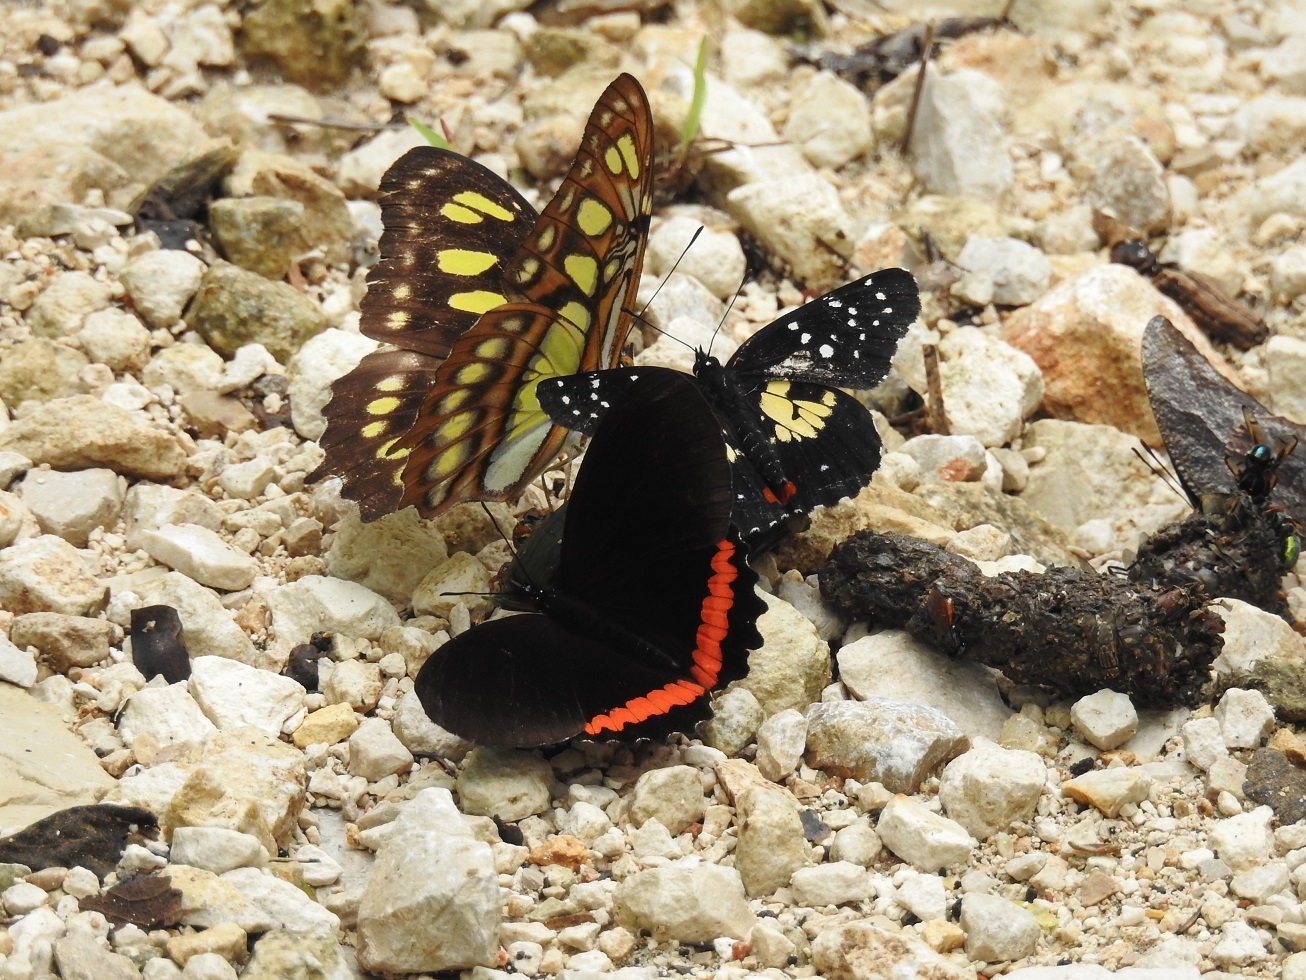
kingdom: Animalia
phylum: Arthropoda
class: Insecta
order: Lepidoptera
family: Nymphalidae
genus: Biblis
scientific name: Biblis aganisa
